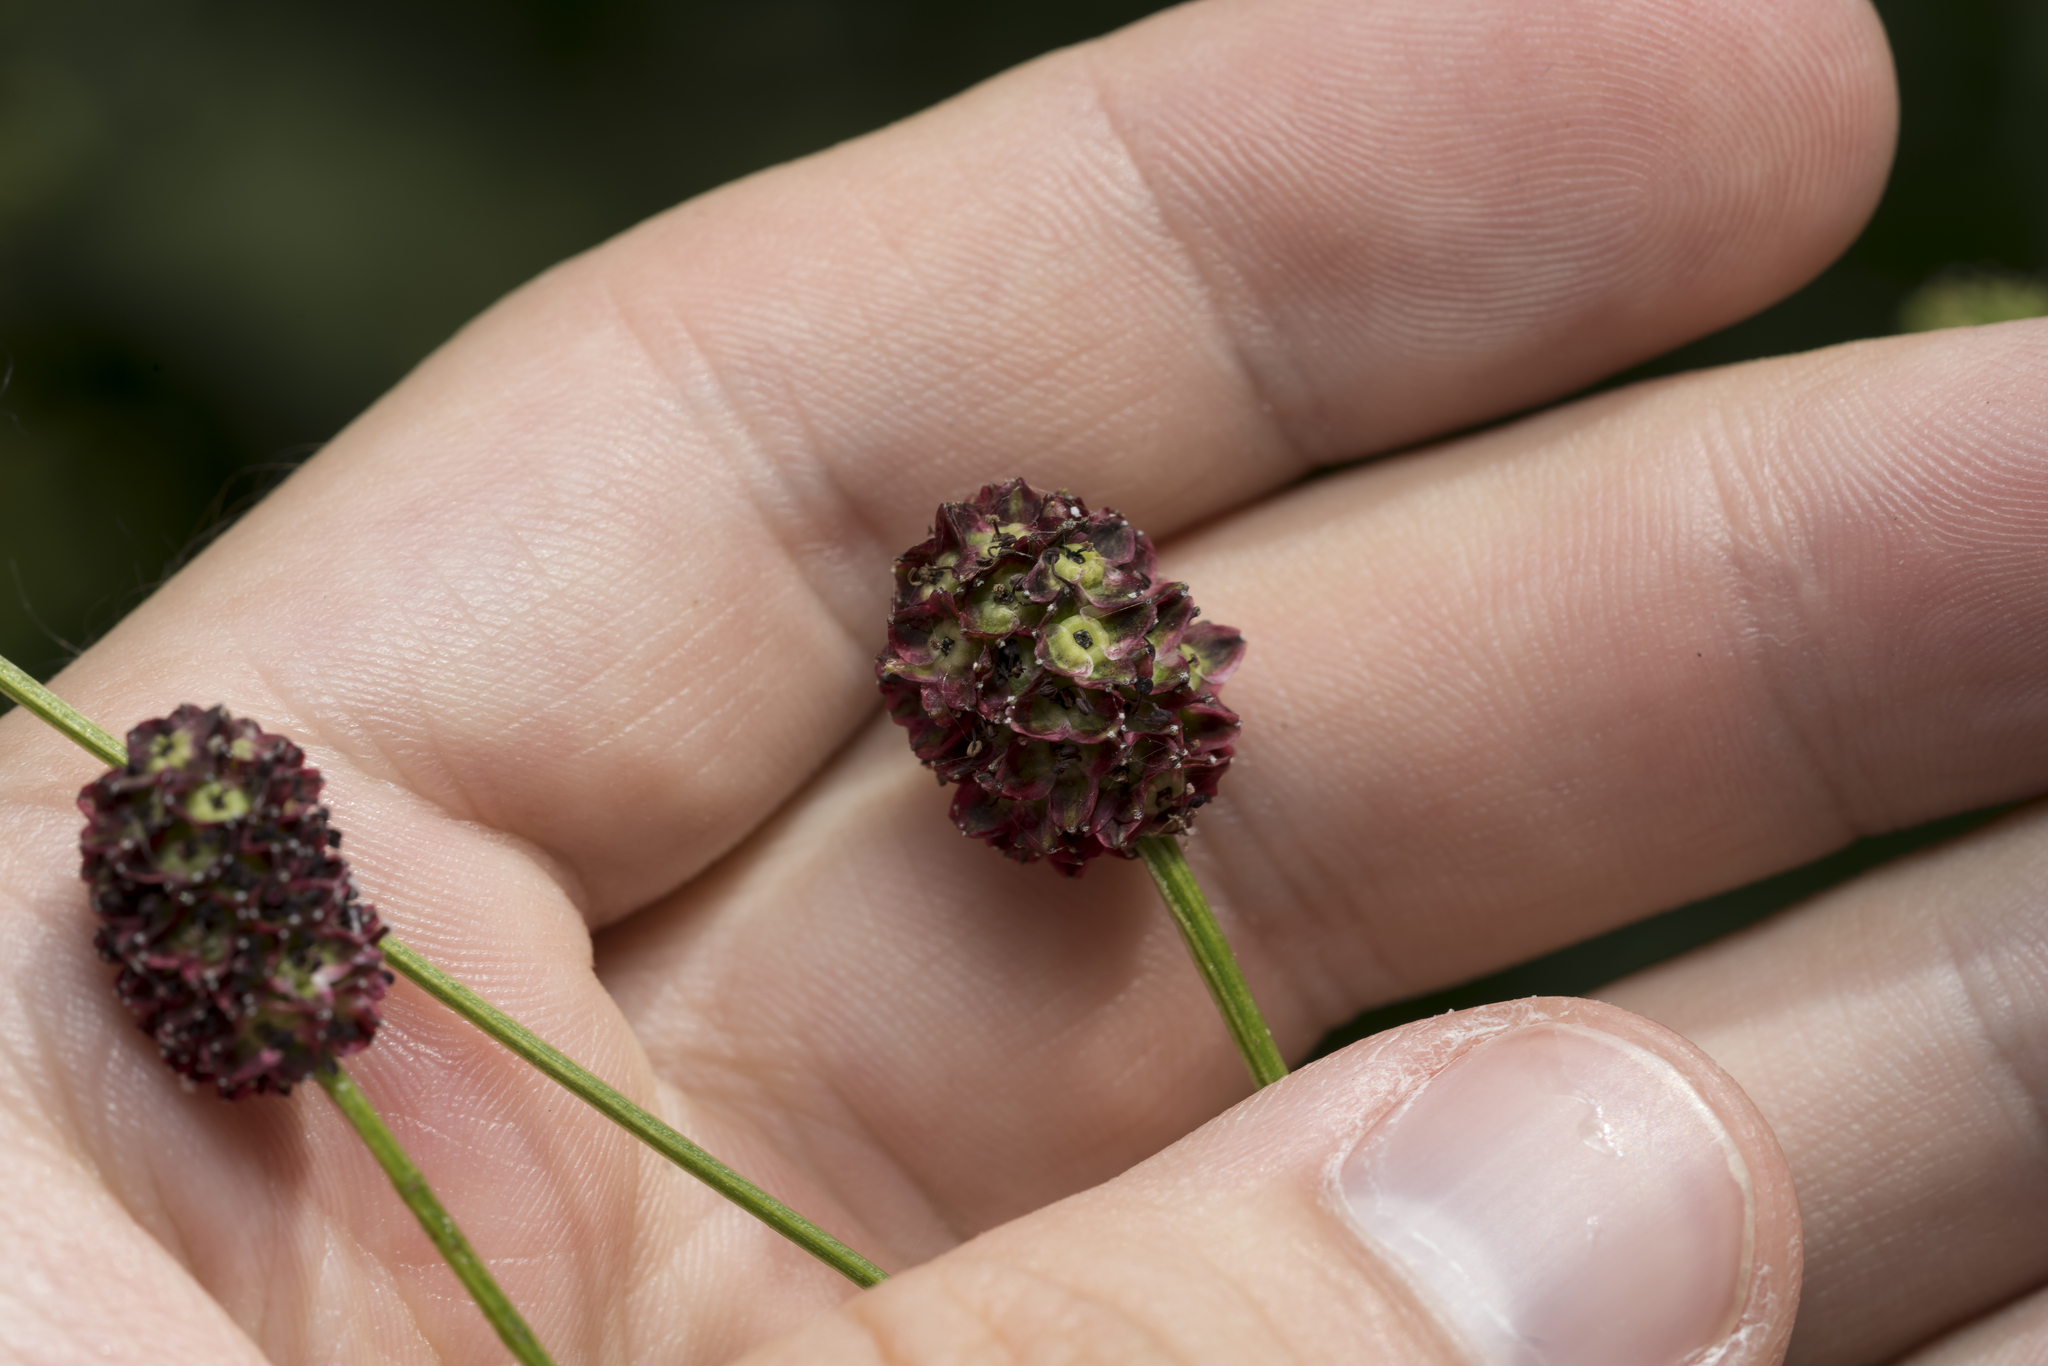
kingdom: Plantae
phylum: Tracheophyta
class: Magnoliopsida
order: Rosales
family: Rosaceae
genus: Sanguisorba
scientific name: Sanguisorba officinalis
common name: Great burnet
